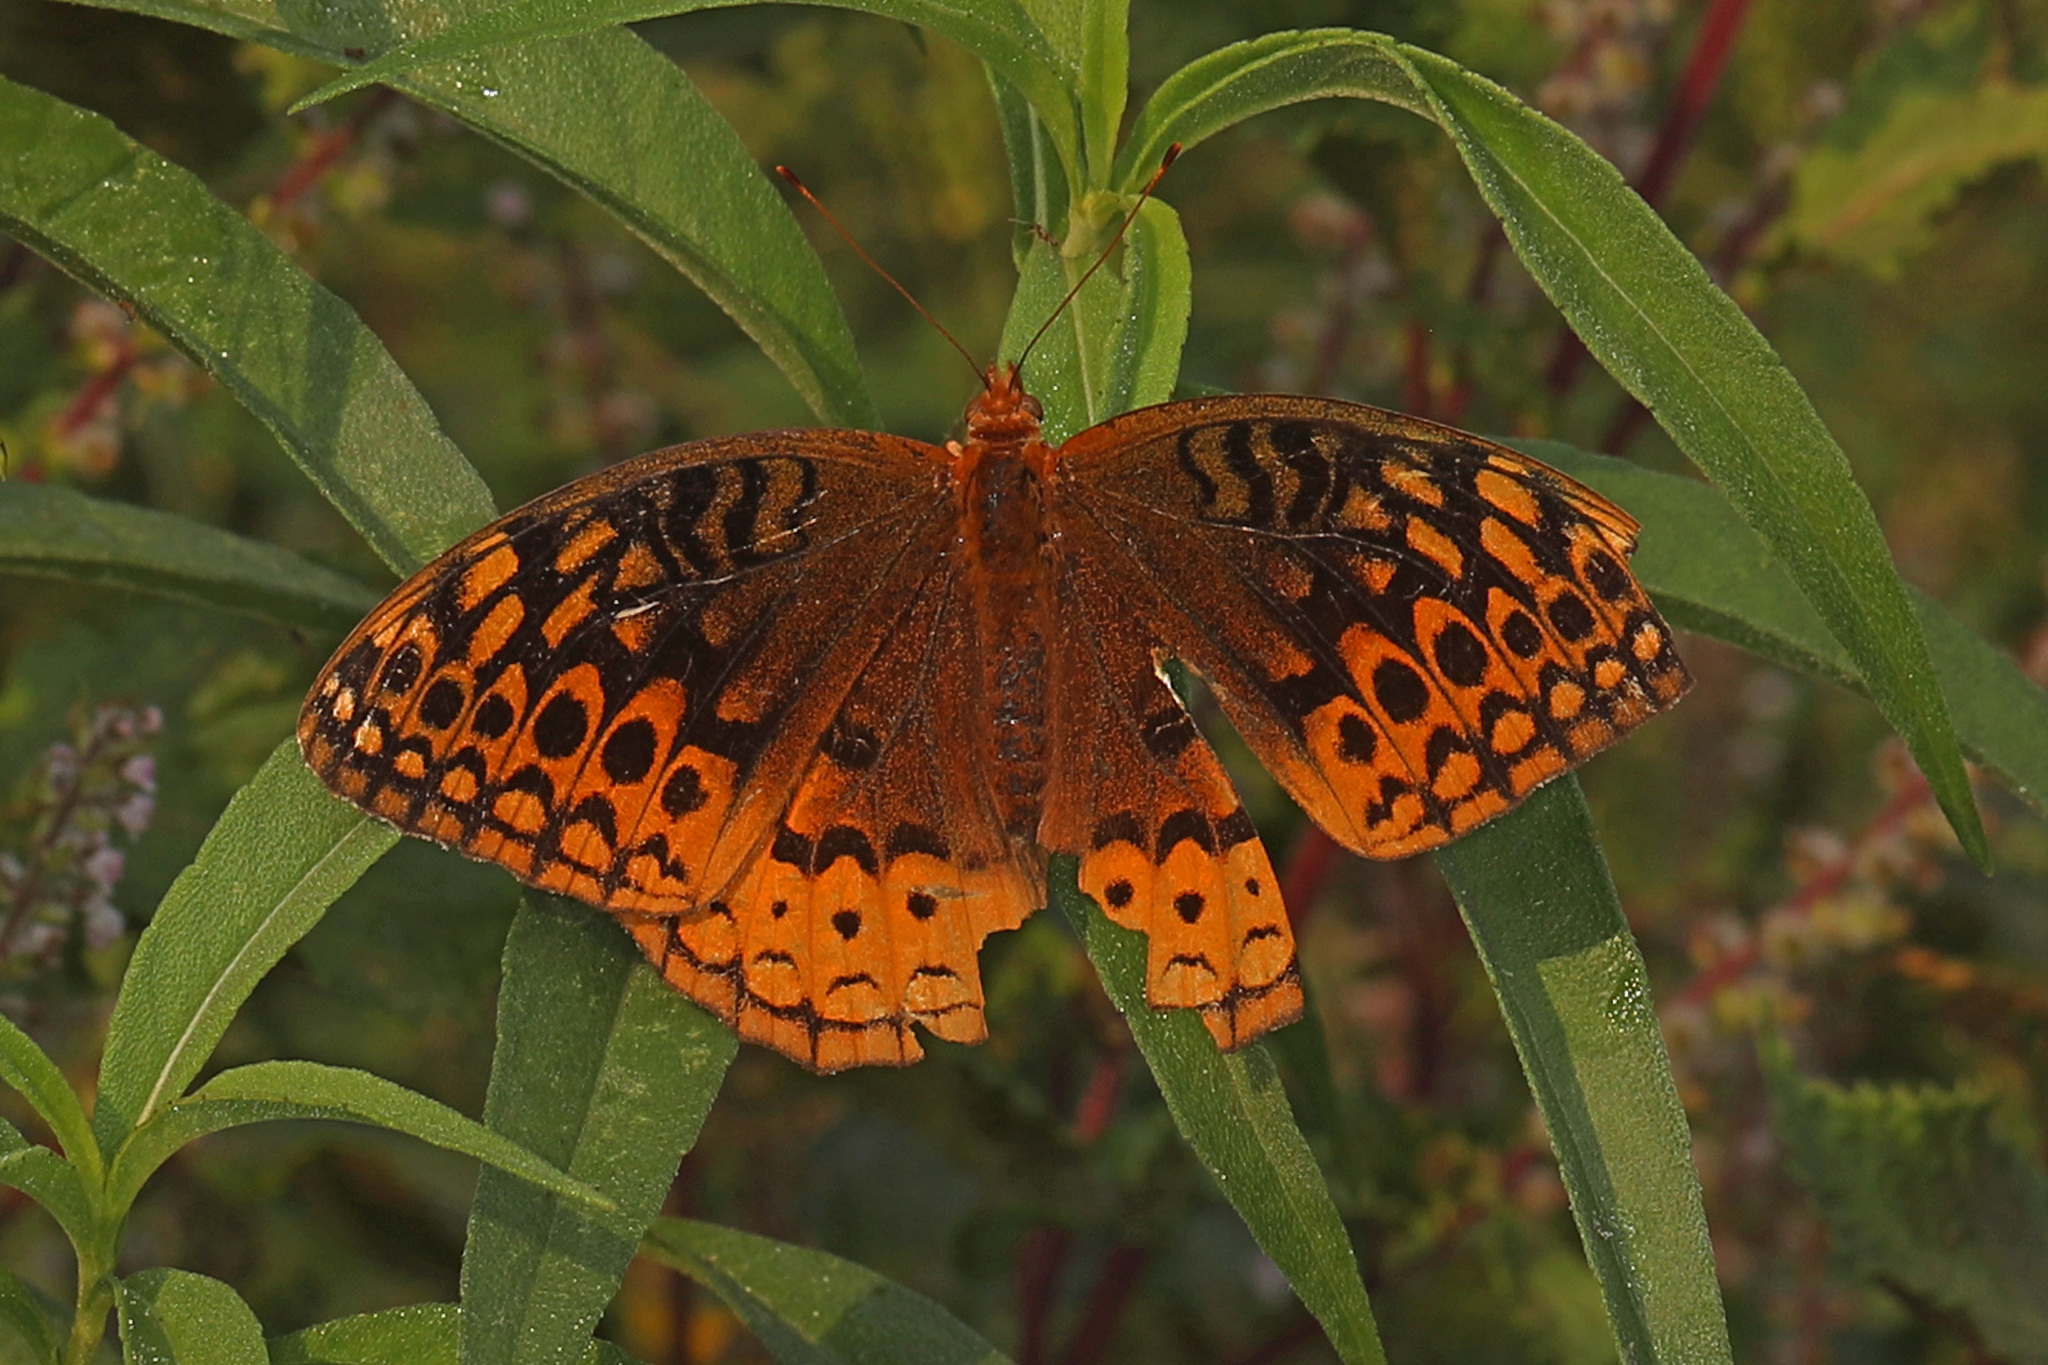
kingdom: Animalia
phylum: Arthropoda
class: Insecta
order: Lepidoptera
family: Nymphalidae
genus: Speyeria
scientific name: Speyeria cybele
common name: Great spangled fritillary
